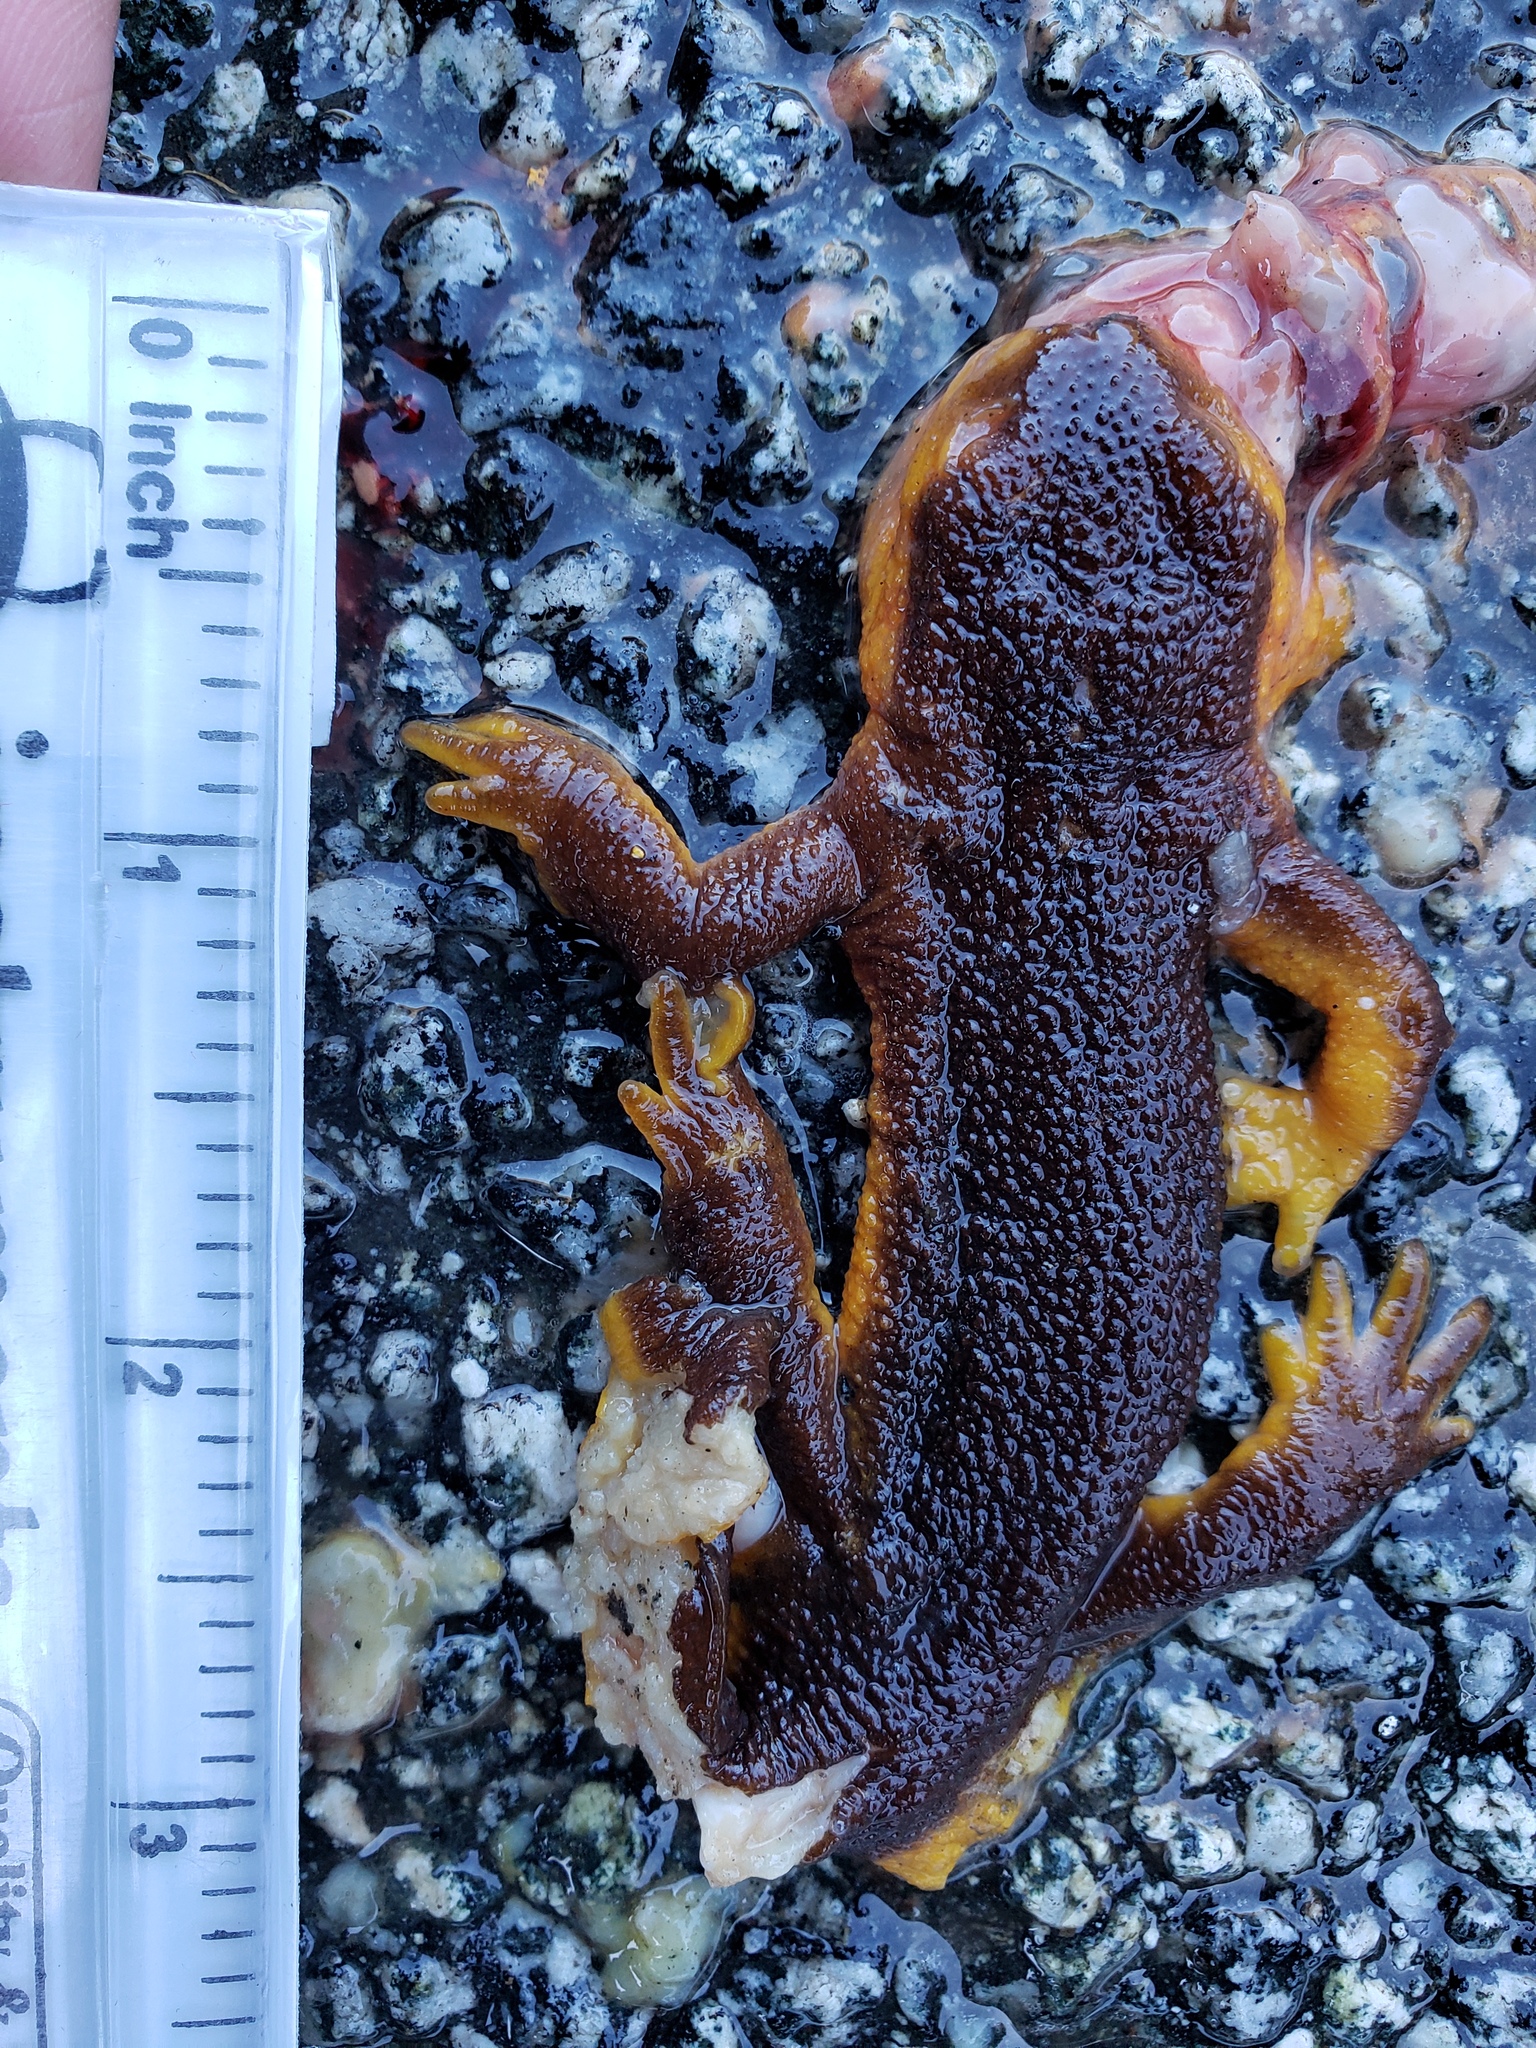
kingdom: Animalia
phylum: Chordata
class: Amphibia
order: Caudata
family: Salamandridae
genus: Taricha
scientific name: Taricha
